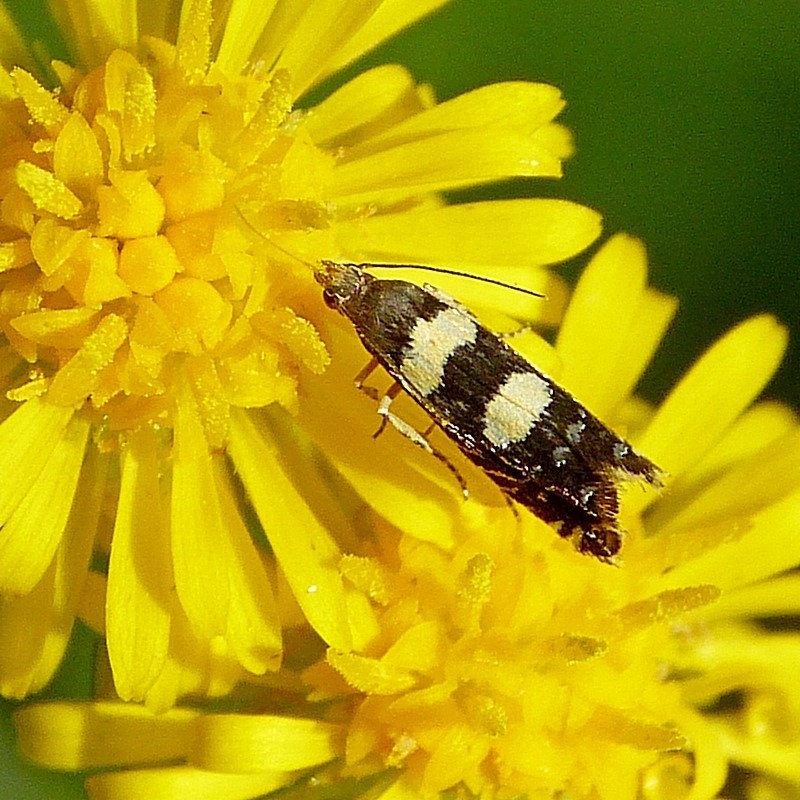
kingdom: Animalia
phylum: Arthropoda
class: Insecta
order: Lepidoptera
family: Glyphipterigidae
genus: Glyphipterix
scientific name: Glyphipterix chrysoplanetis
